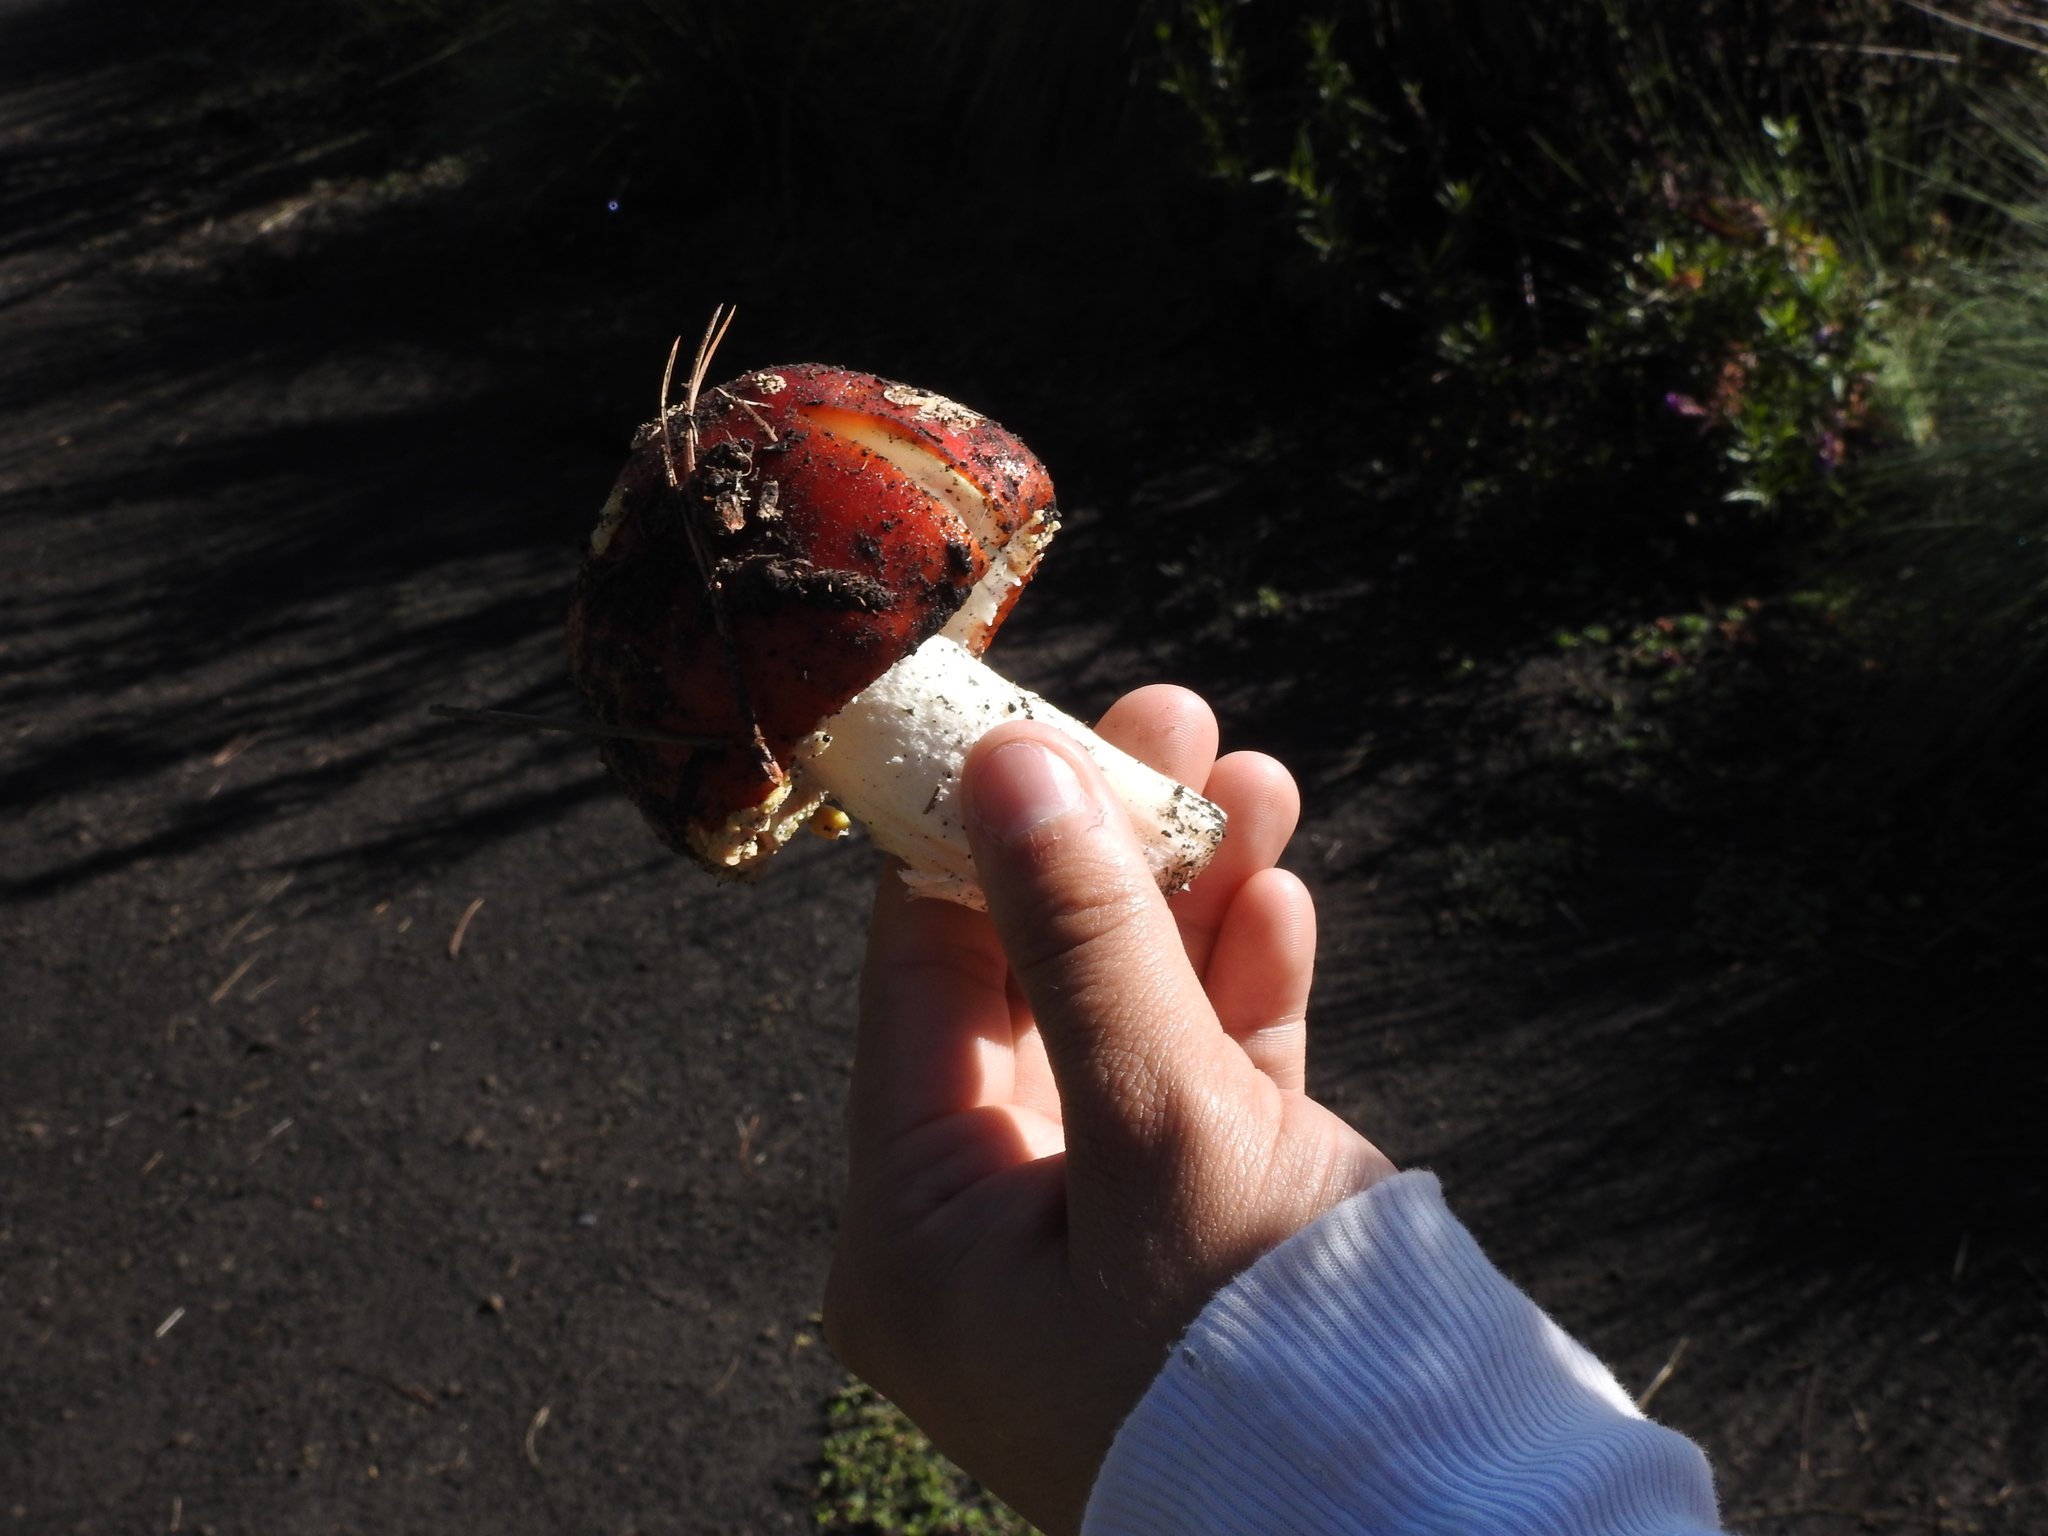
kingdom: Fungi
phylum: Basidiomycota
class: Agaricomycetes
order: Agaricales
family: Amanitaceae
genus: Amanita
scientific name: Amanita muscaria
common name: Fly agaric
